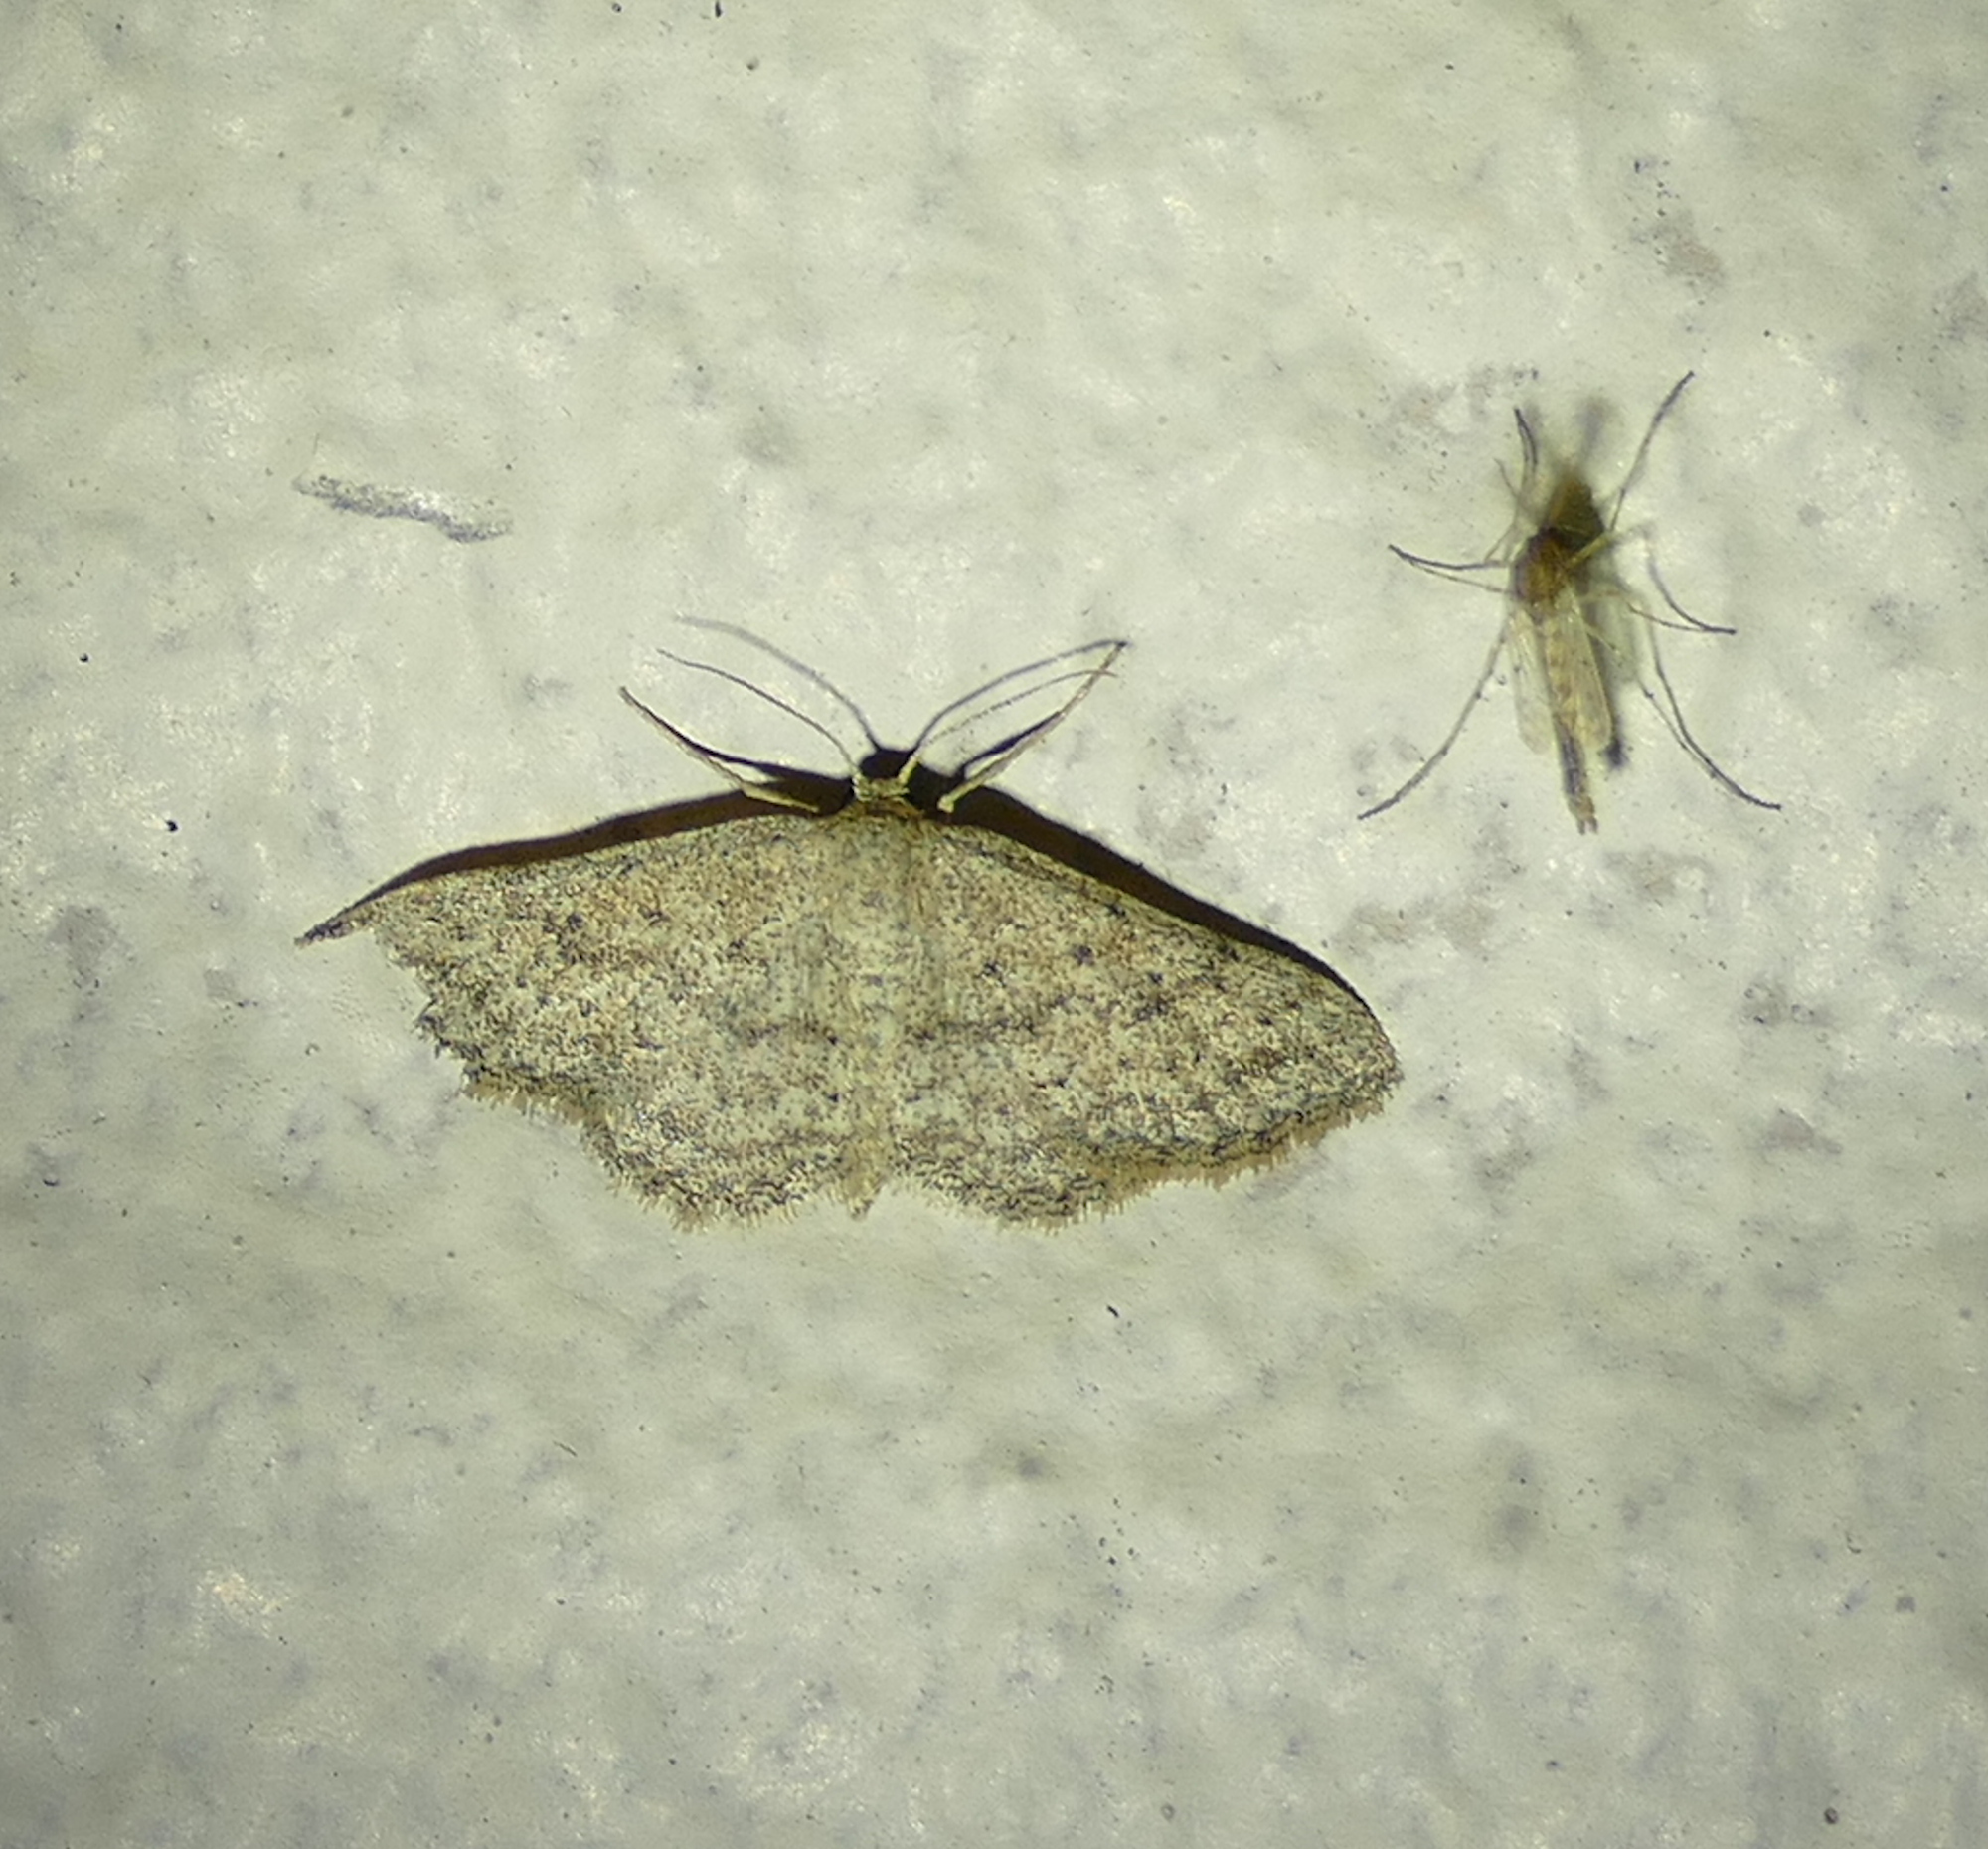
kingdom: Animalia
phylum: Arthropoda
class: Insecta
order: Lepidoptera
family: Geometridae
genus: Lobocleta
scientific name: Lobocleta ossularia
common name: Drab brown wave
